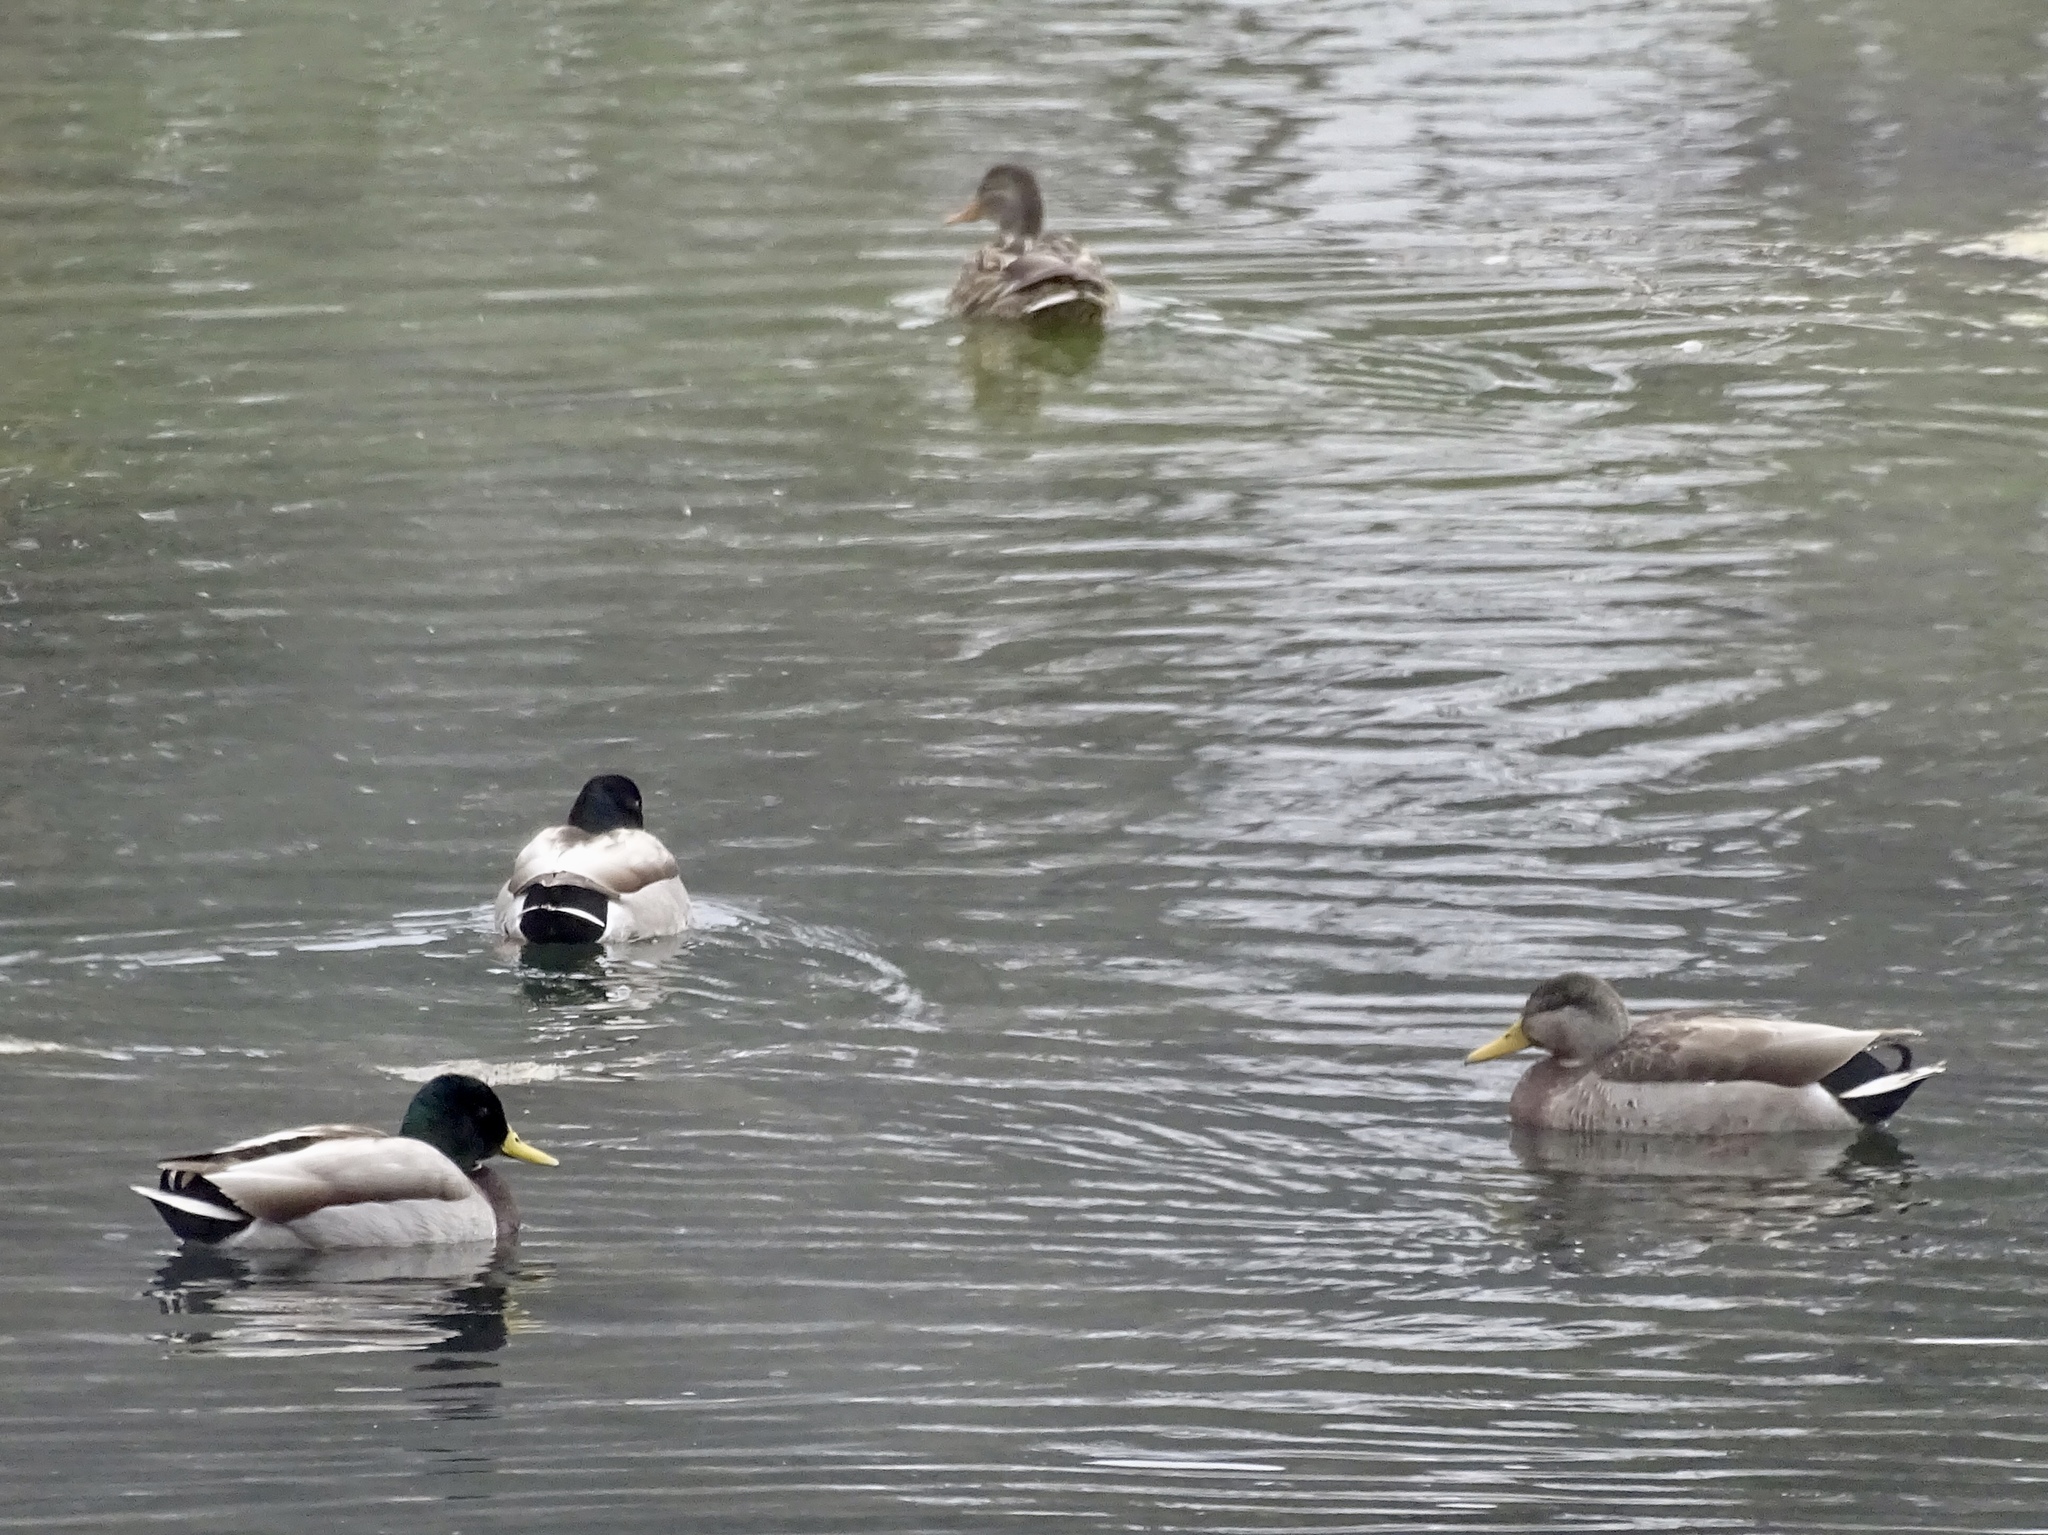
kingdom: Animalia
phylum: Chordata
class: Aves
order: Anseriformes
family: Anatidae
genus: Anas
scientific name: Anas platyrhynchos
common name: Mallard
